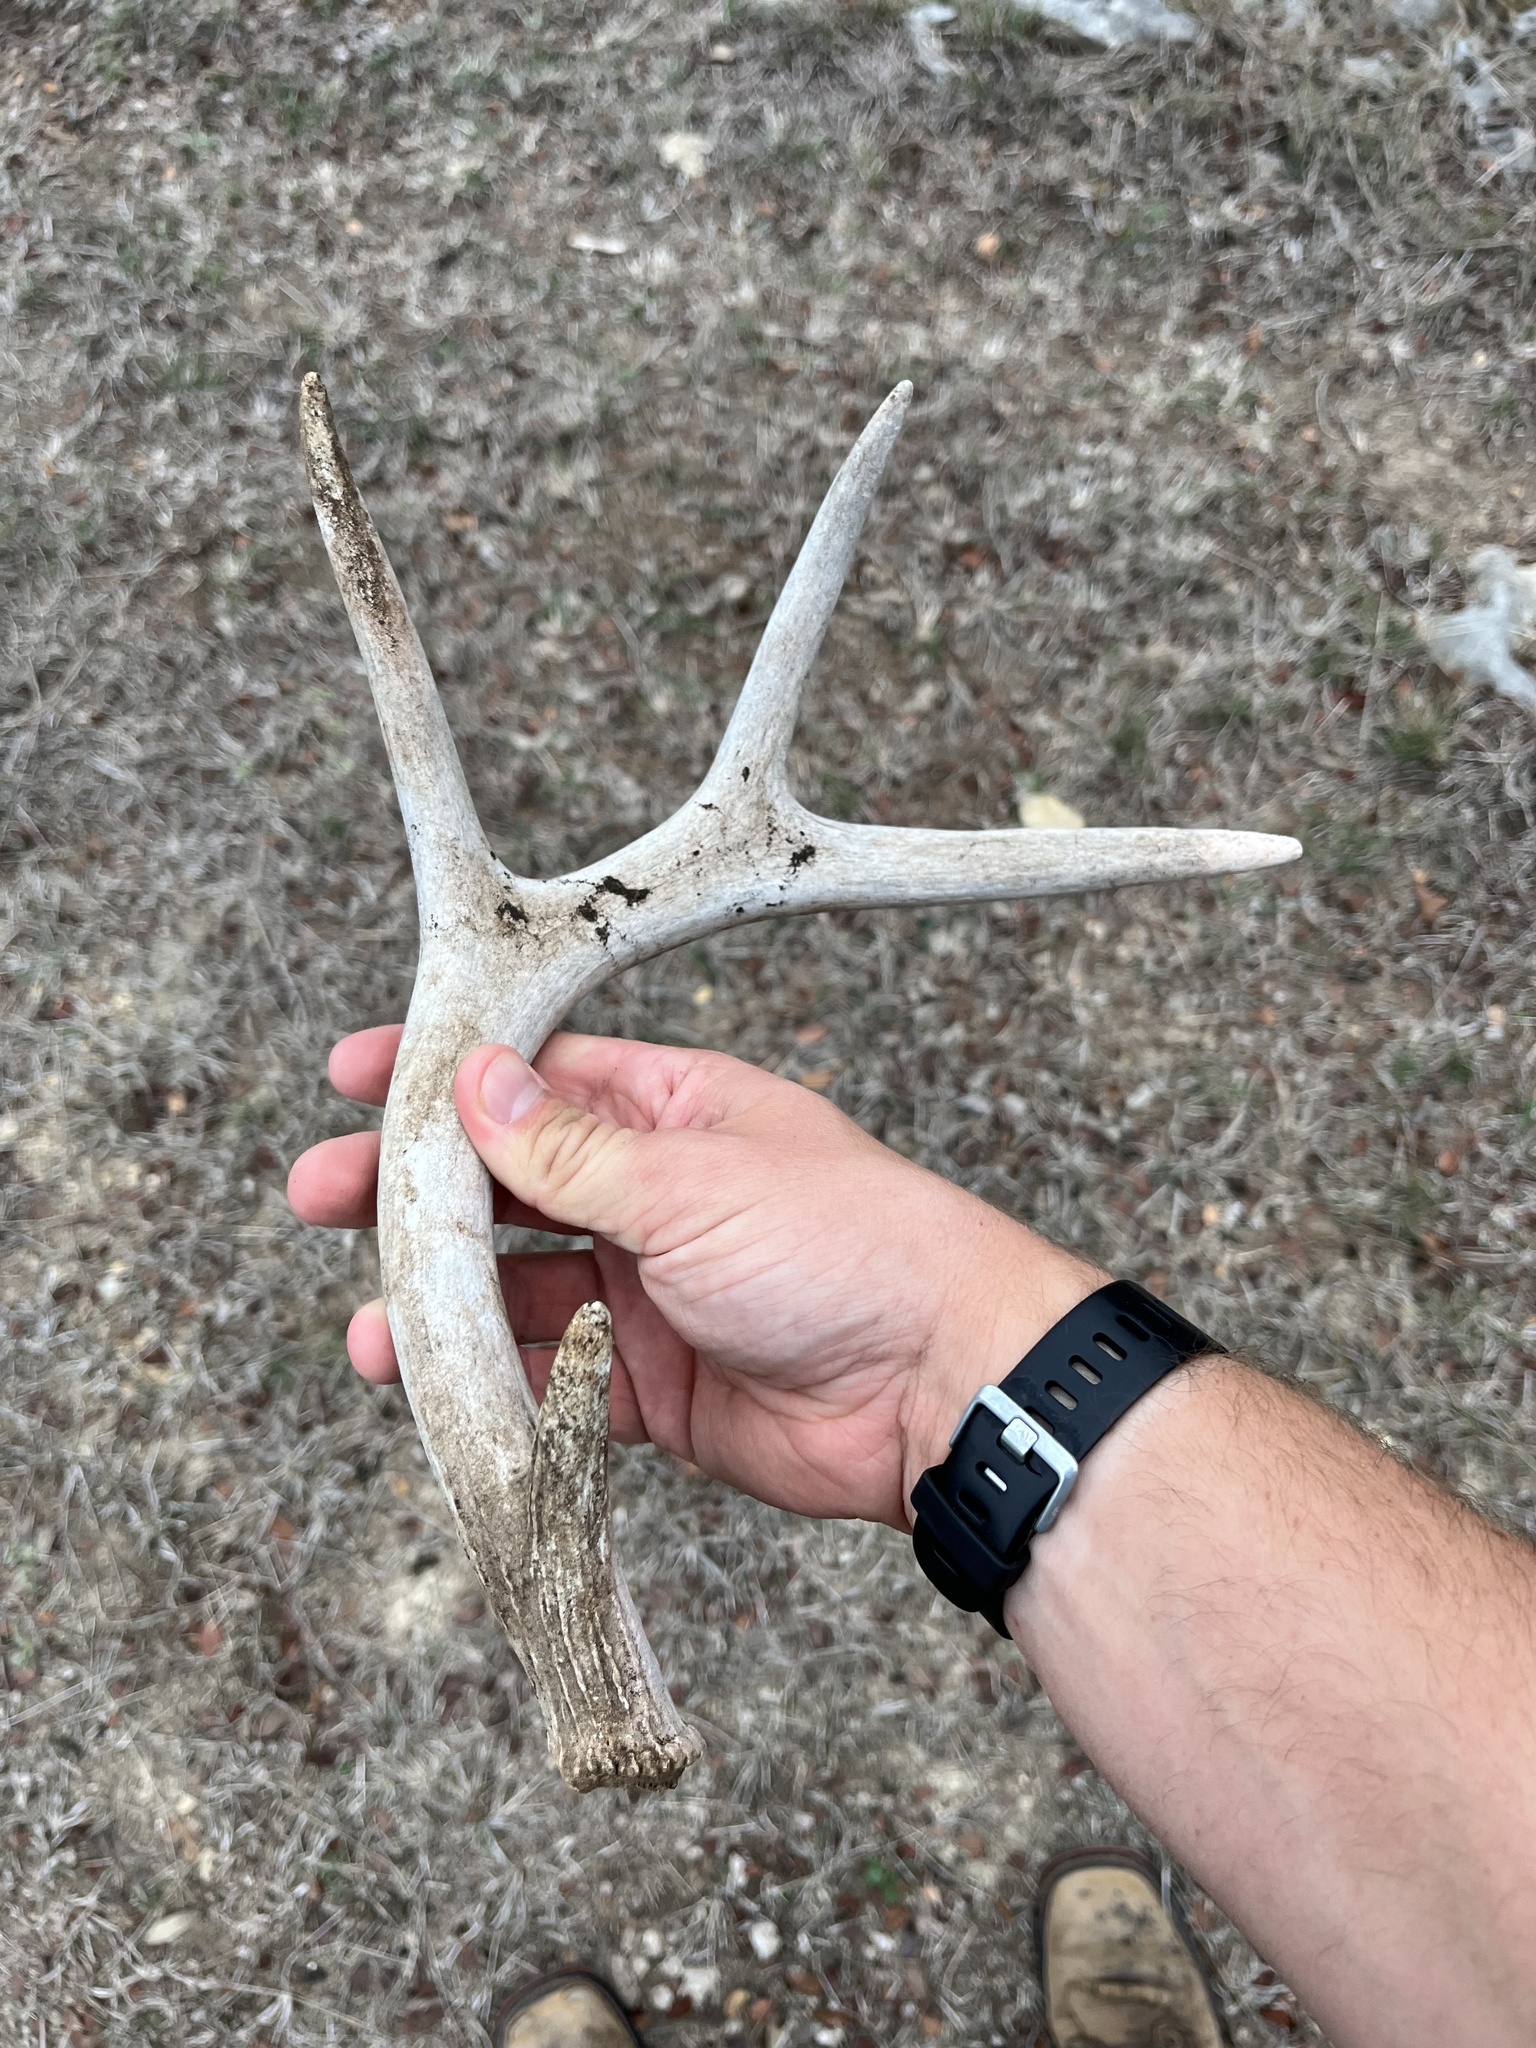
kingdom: Animalia
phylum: Chordata
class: Mammalia
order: Artiodactyla
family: Cervidae
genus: Odocoileus
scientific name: Odocoileus virginianus
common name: White-tailed deer
